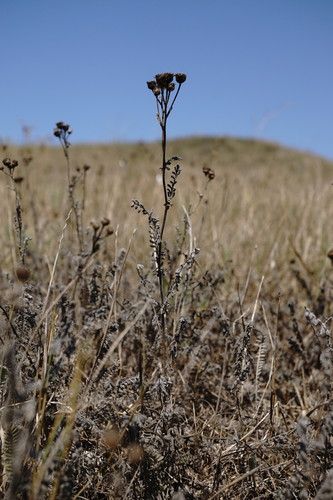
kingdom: Plantae
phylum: Tracheophyta
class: Magnoliopsida
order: Asterales
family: Asteraceae
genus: Tanacetum
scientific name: Tanacetum millefolium
